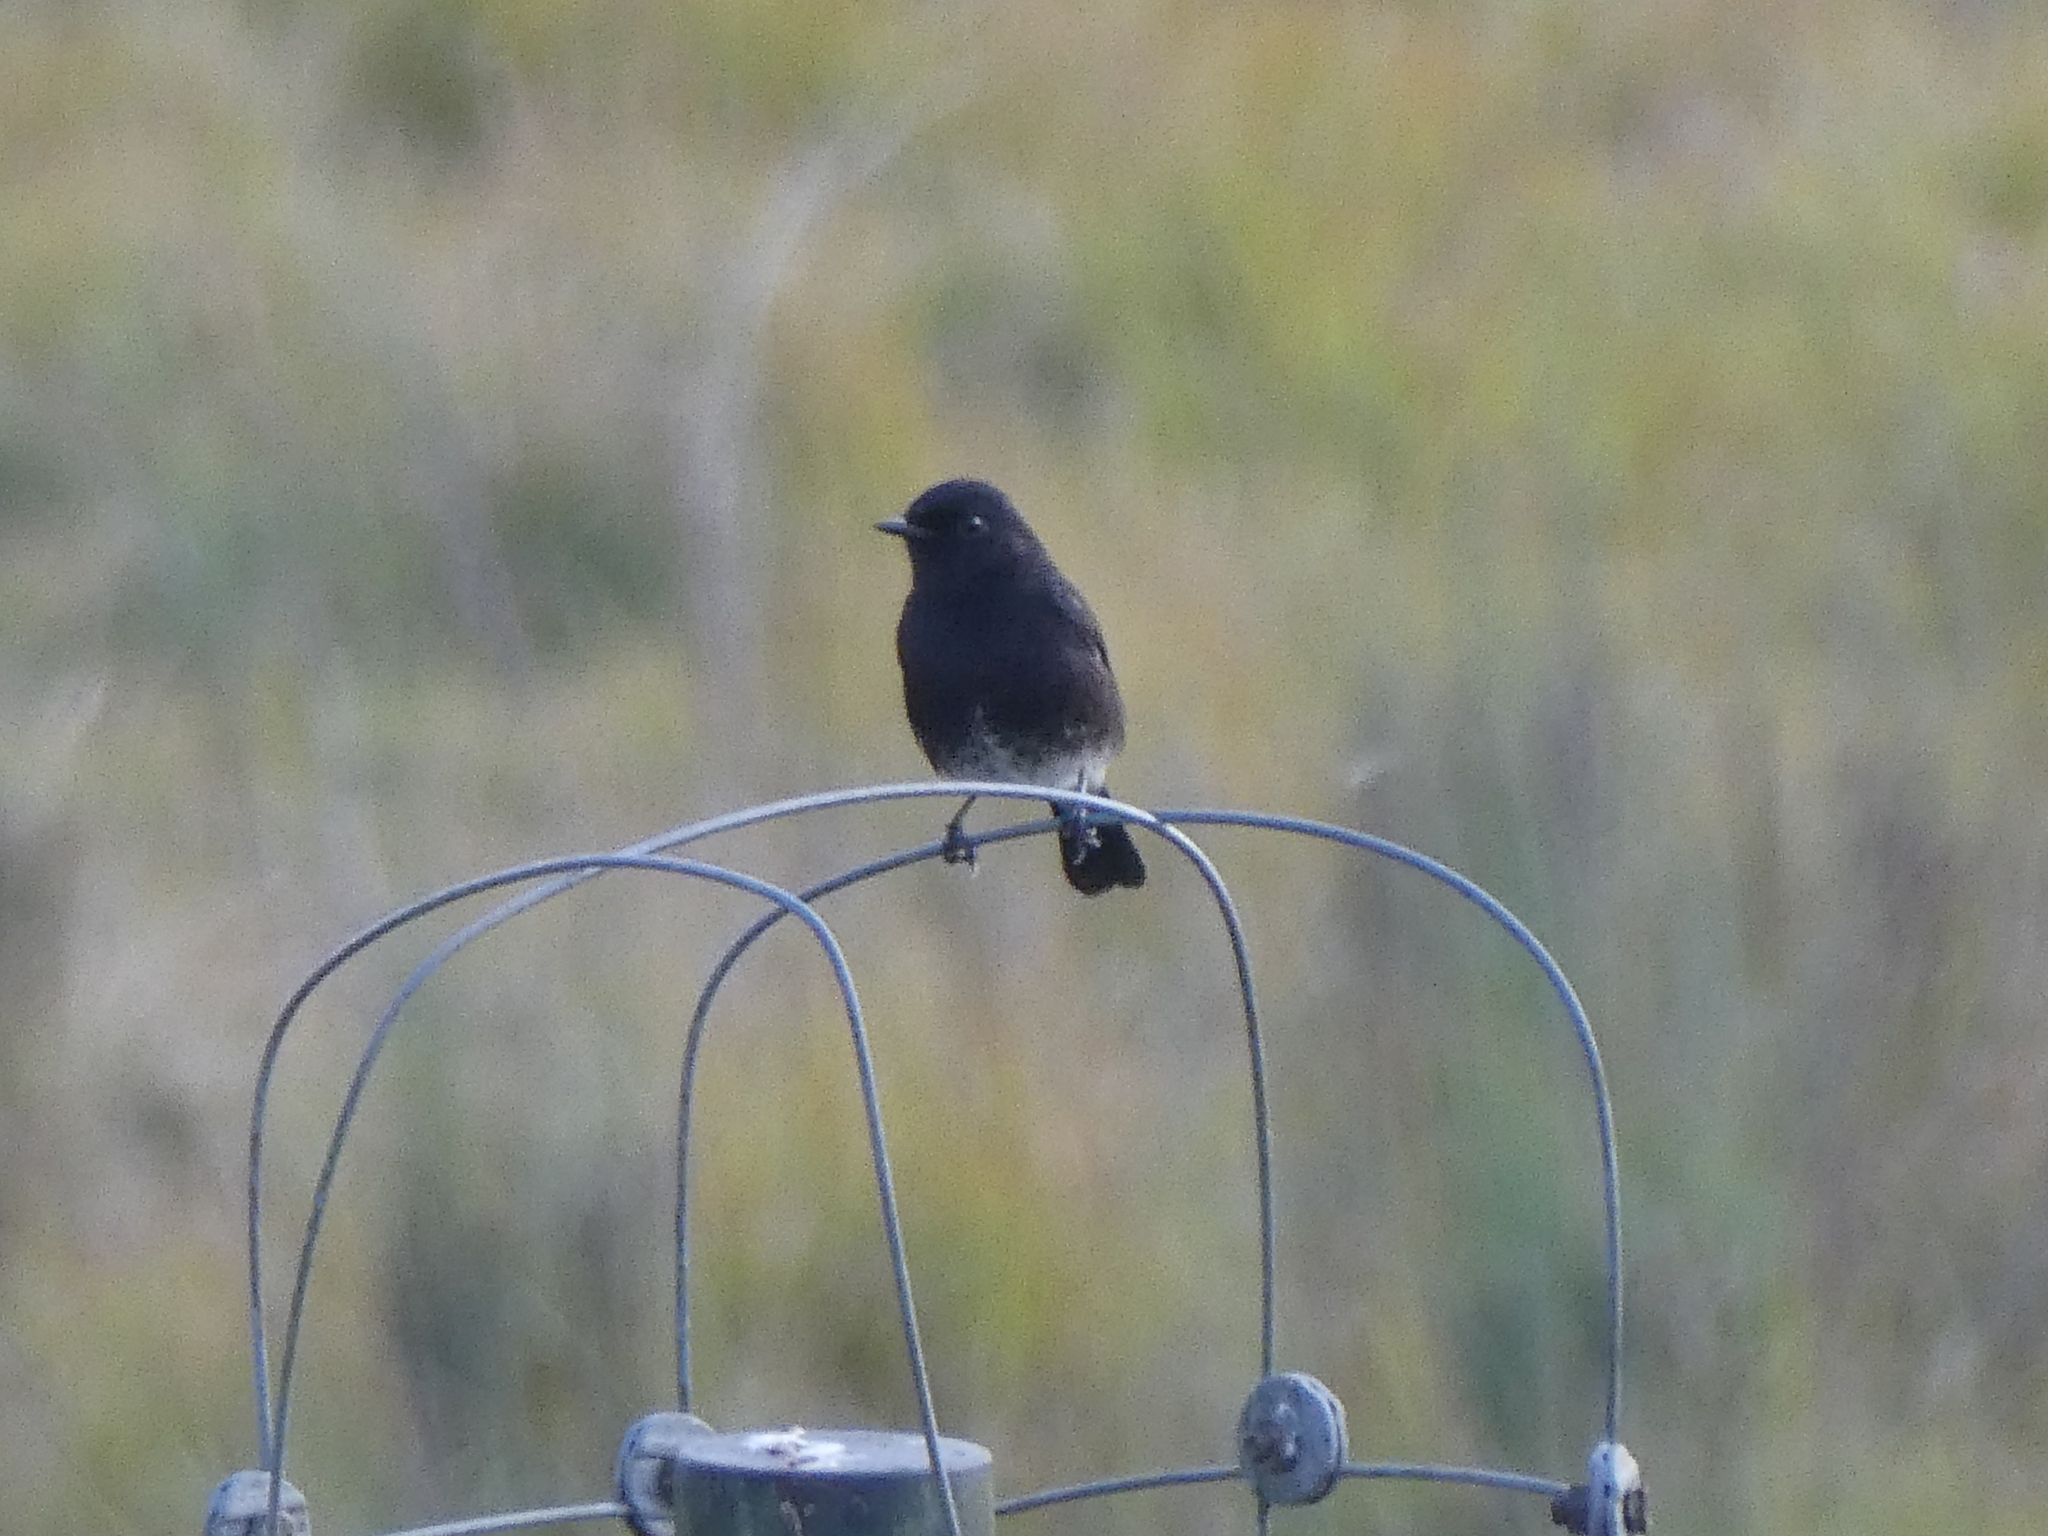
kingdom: Animalia
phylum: Chordata
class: Aves
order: Passeriformes
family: Muscicapidae
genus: Saxicola
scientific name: Saxicola caprata
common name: Pied bush chat
